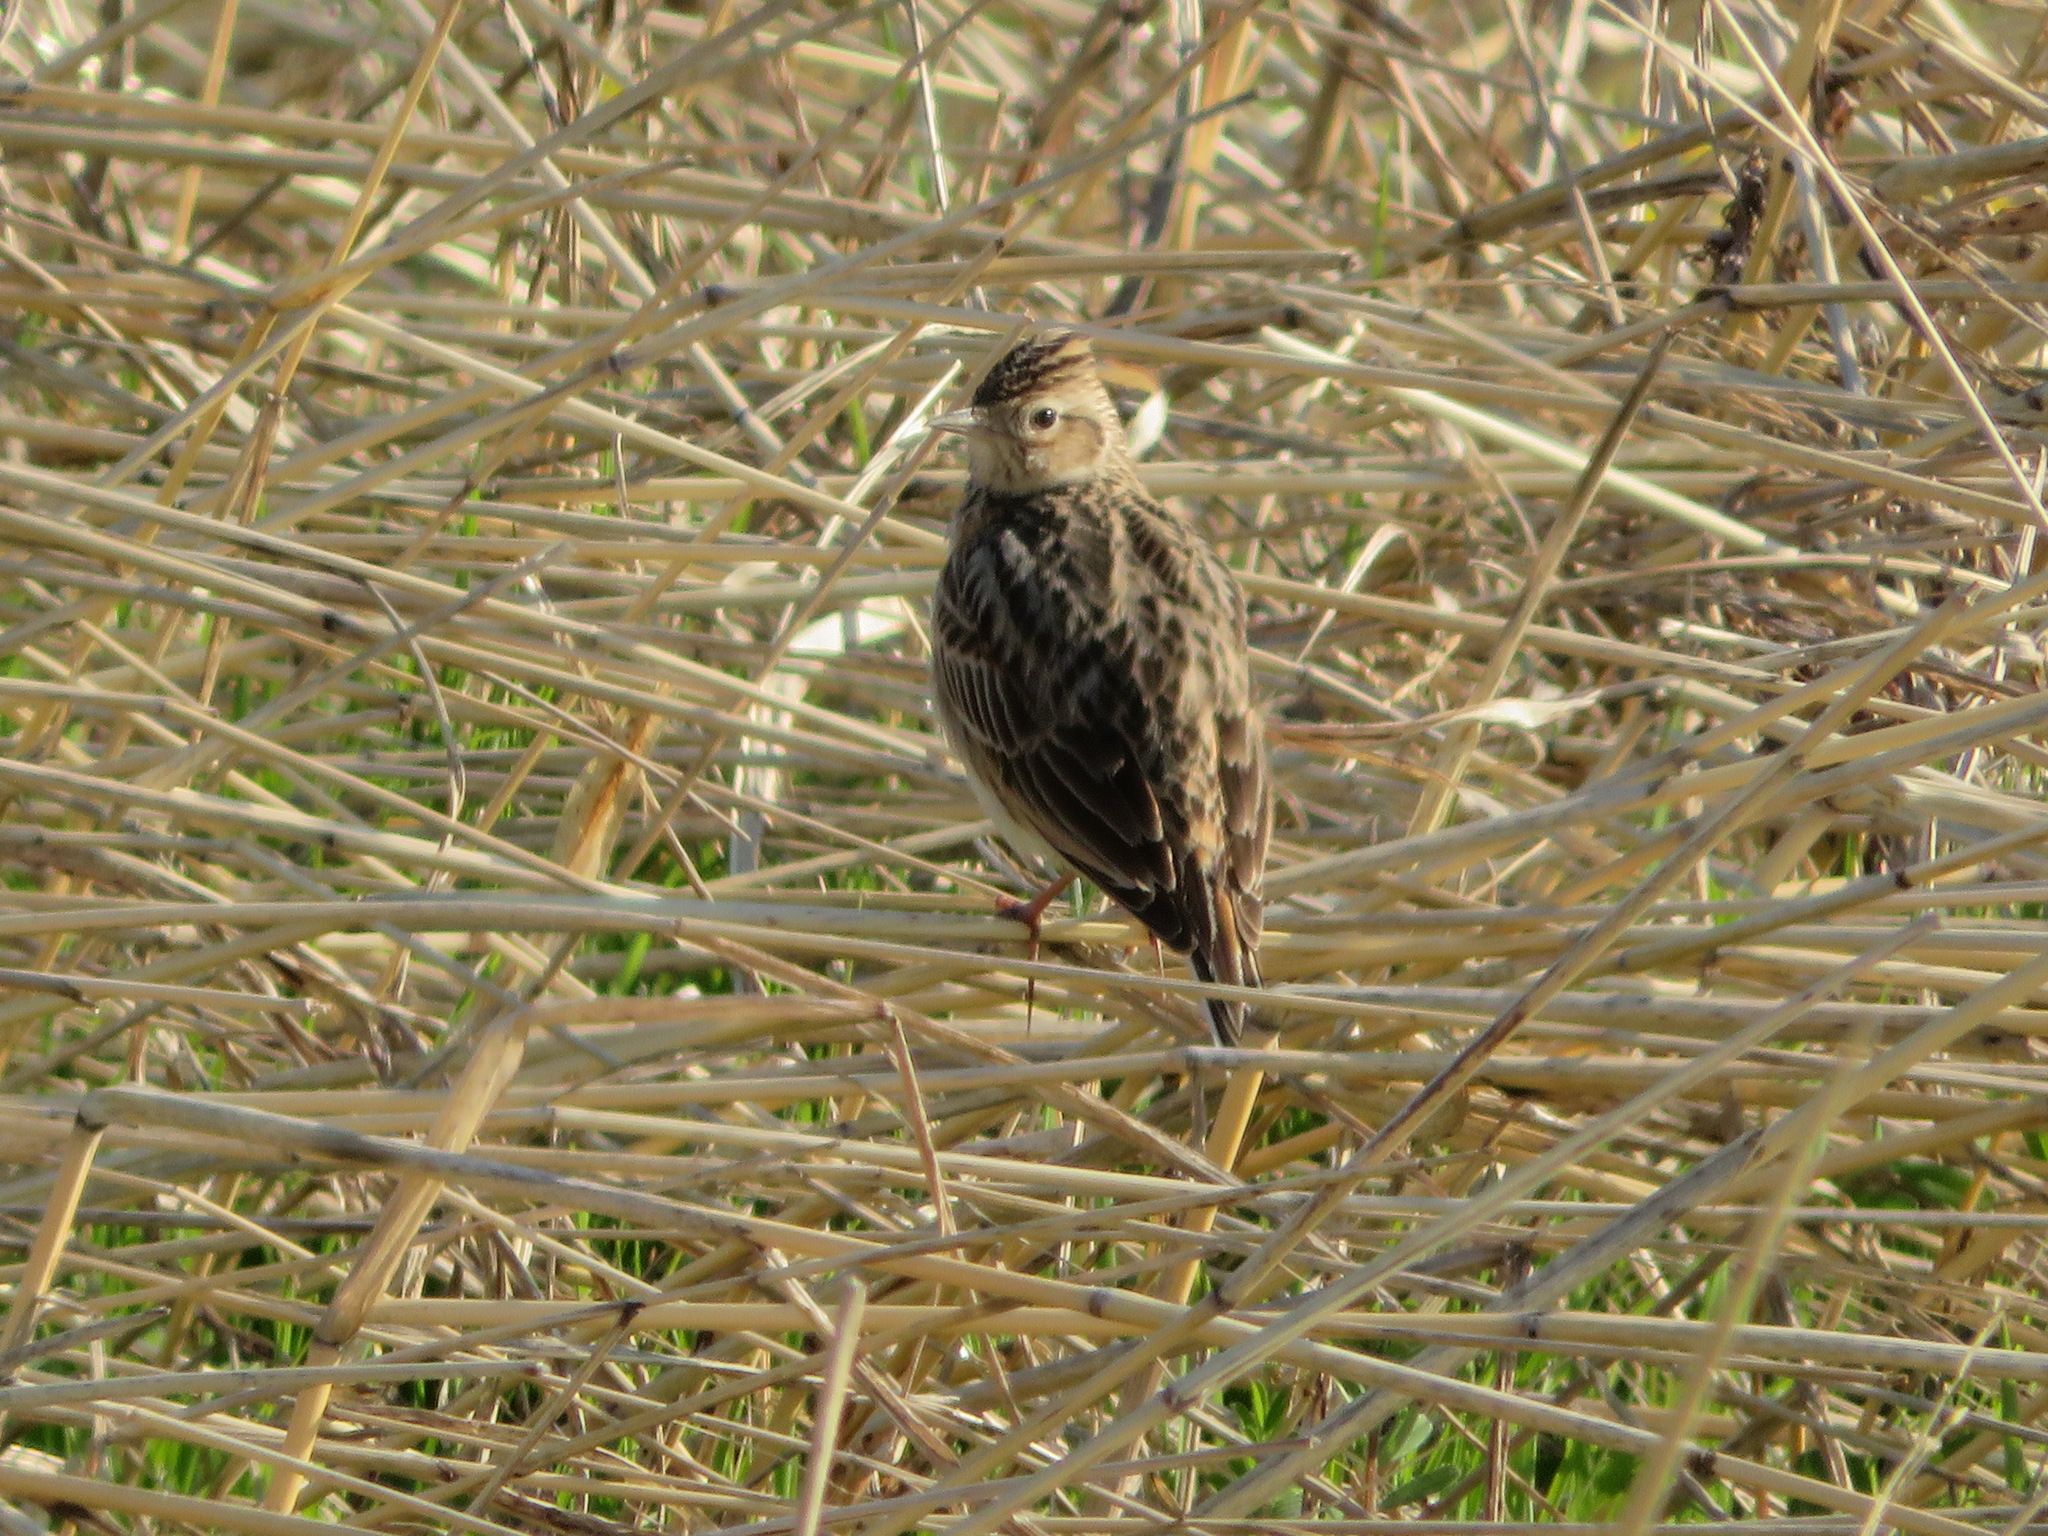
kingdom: Animalia
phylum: Chordata
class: Aves
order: Passeriformes
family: Alaudidae
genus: Alauda
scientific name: Alauda arvensis
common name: Eurasian skylark
